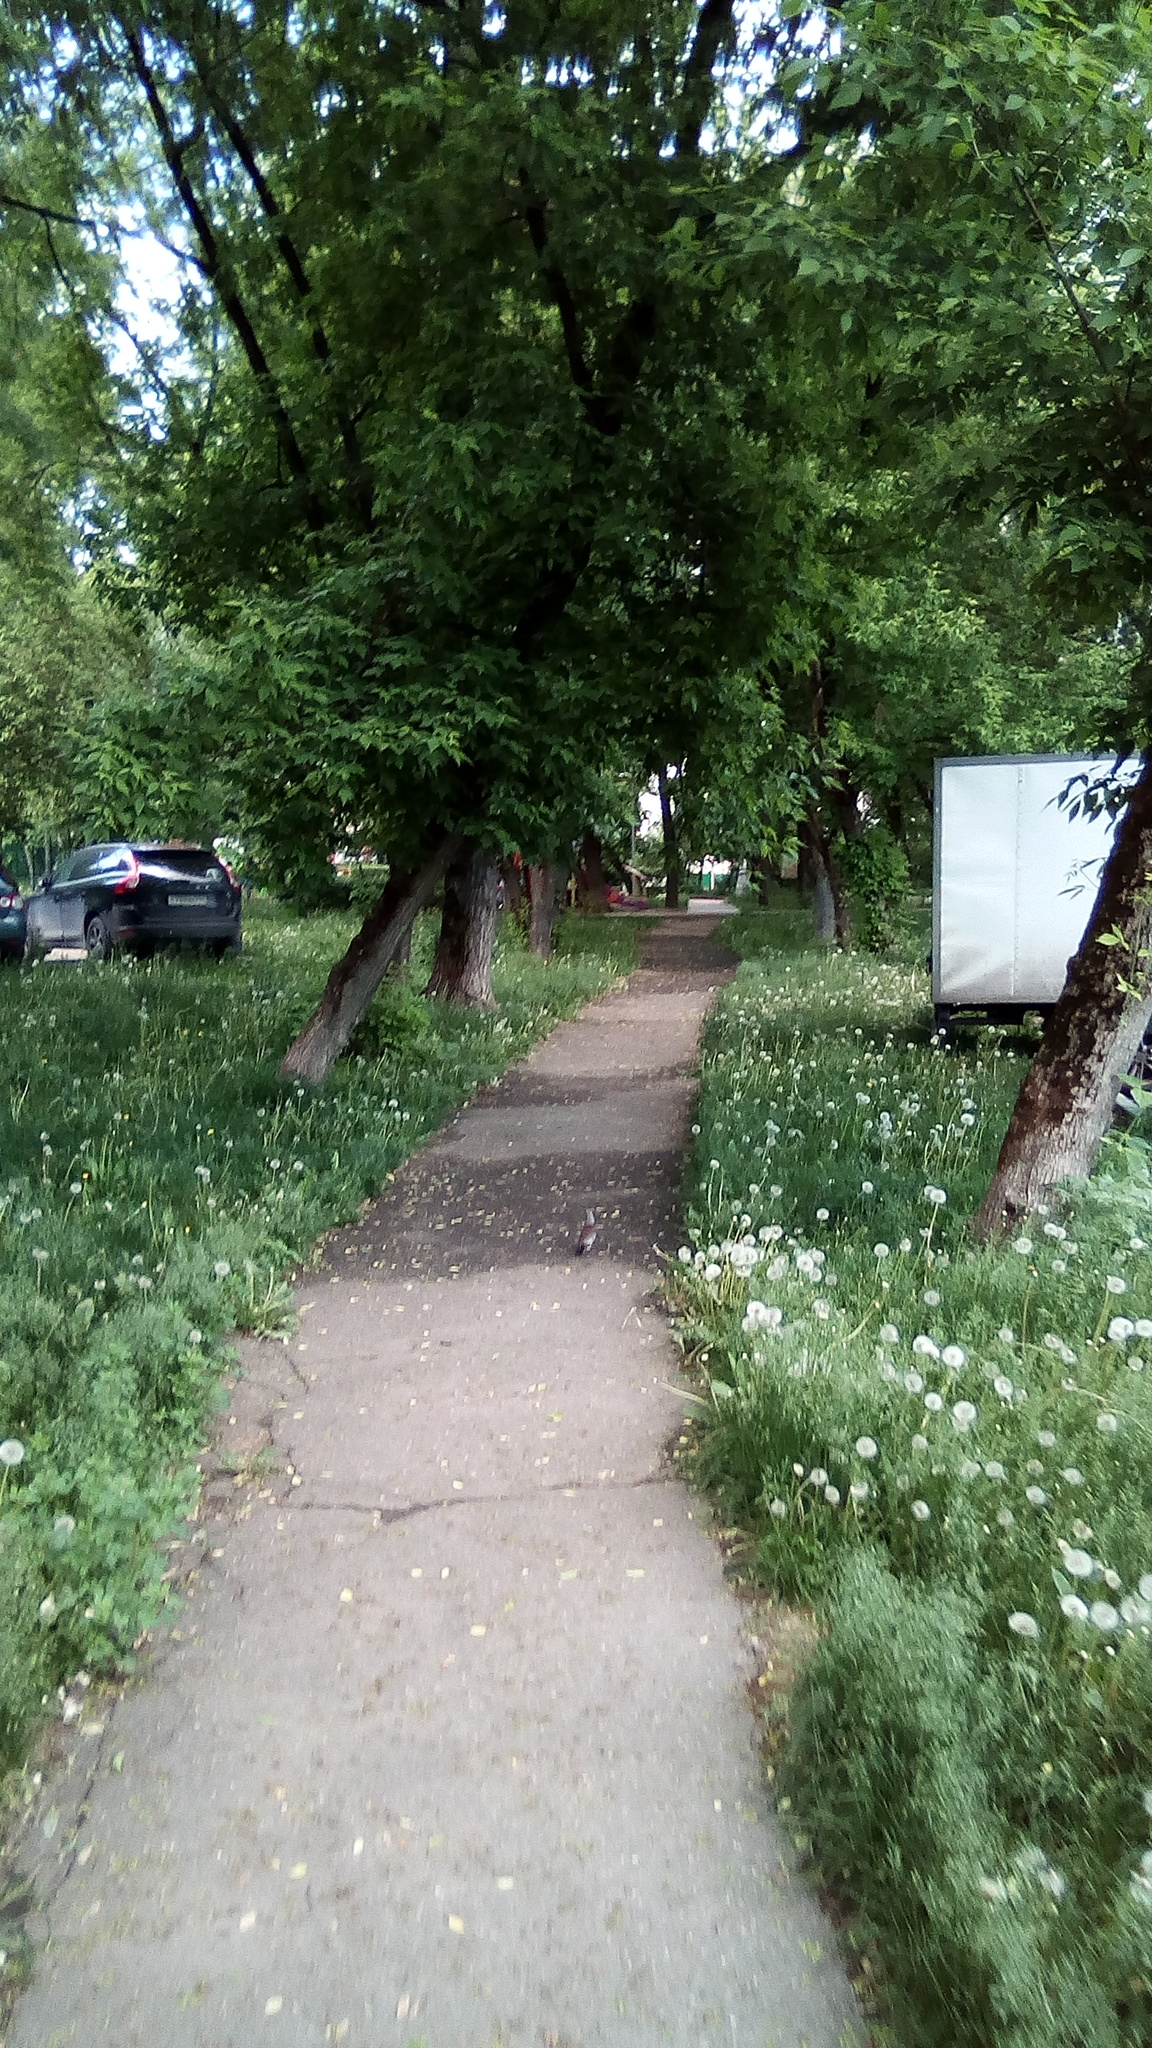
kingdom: Plantae
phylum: Tracheophyta
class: Magnoliopsida
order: Sapindales
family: Sapindaceae
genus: Acer
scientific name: Acer negundo
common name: Ashleaf maple
